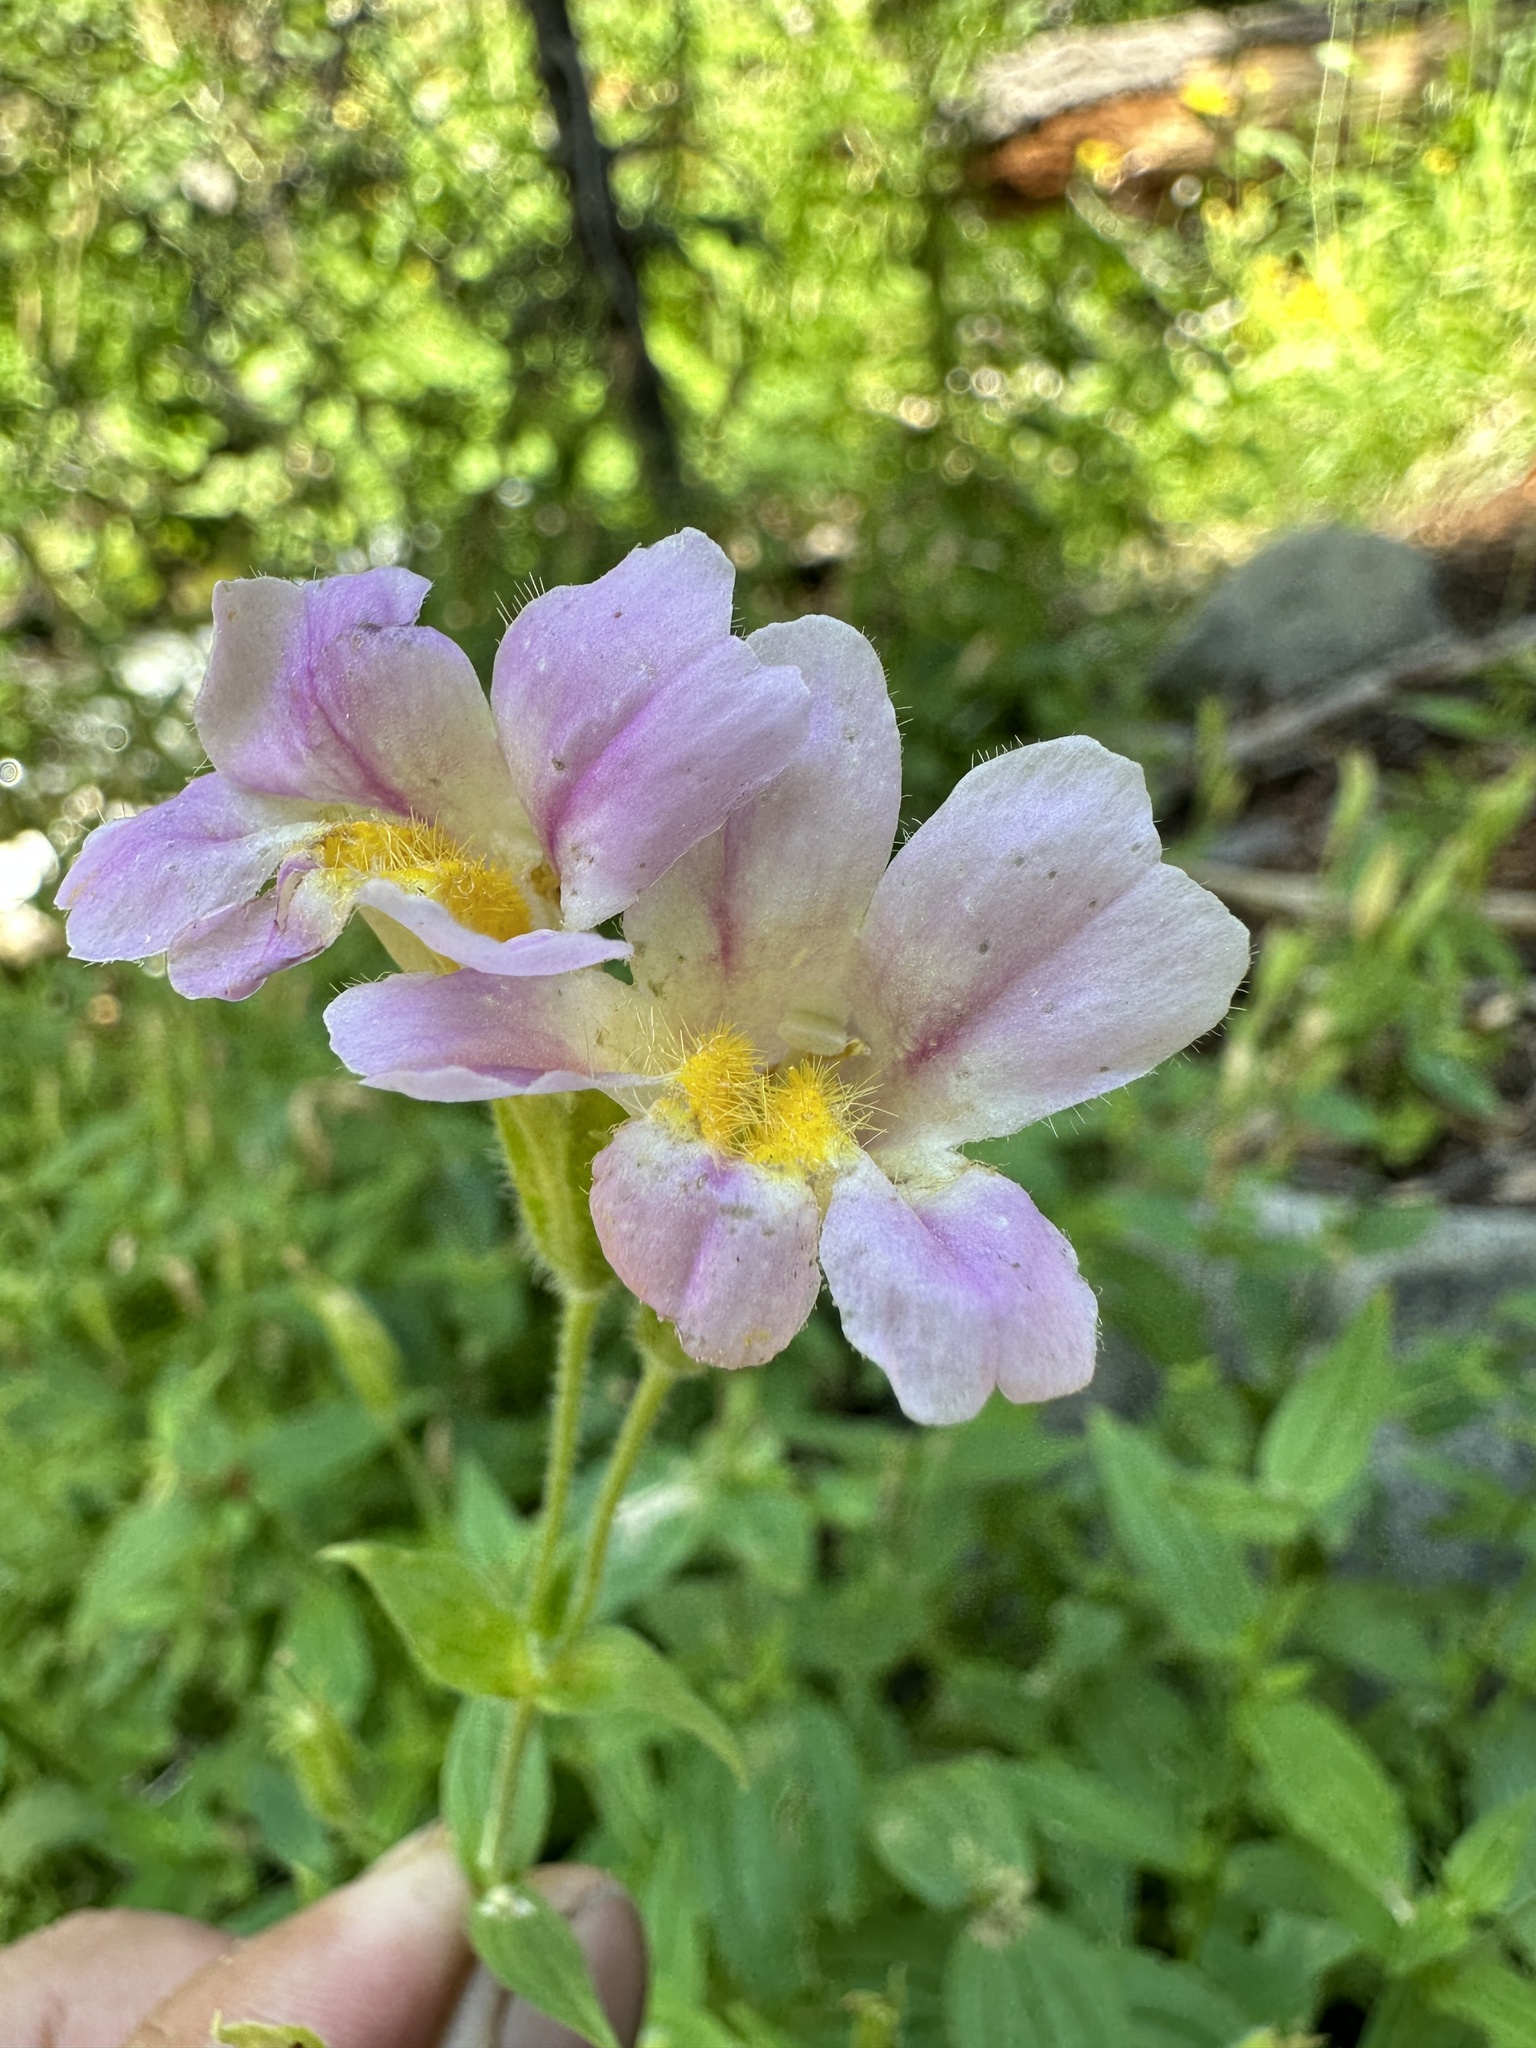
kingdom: Plantae
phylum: Tracheophyta
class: Magnoliopsida
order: Lamiales
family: Phrymaceae
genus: Erythranthe
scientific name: Erythranthe erubescens
